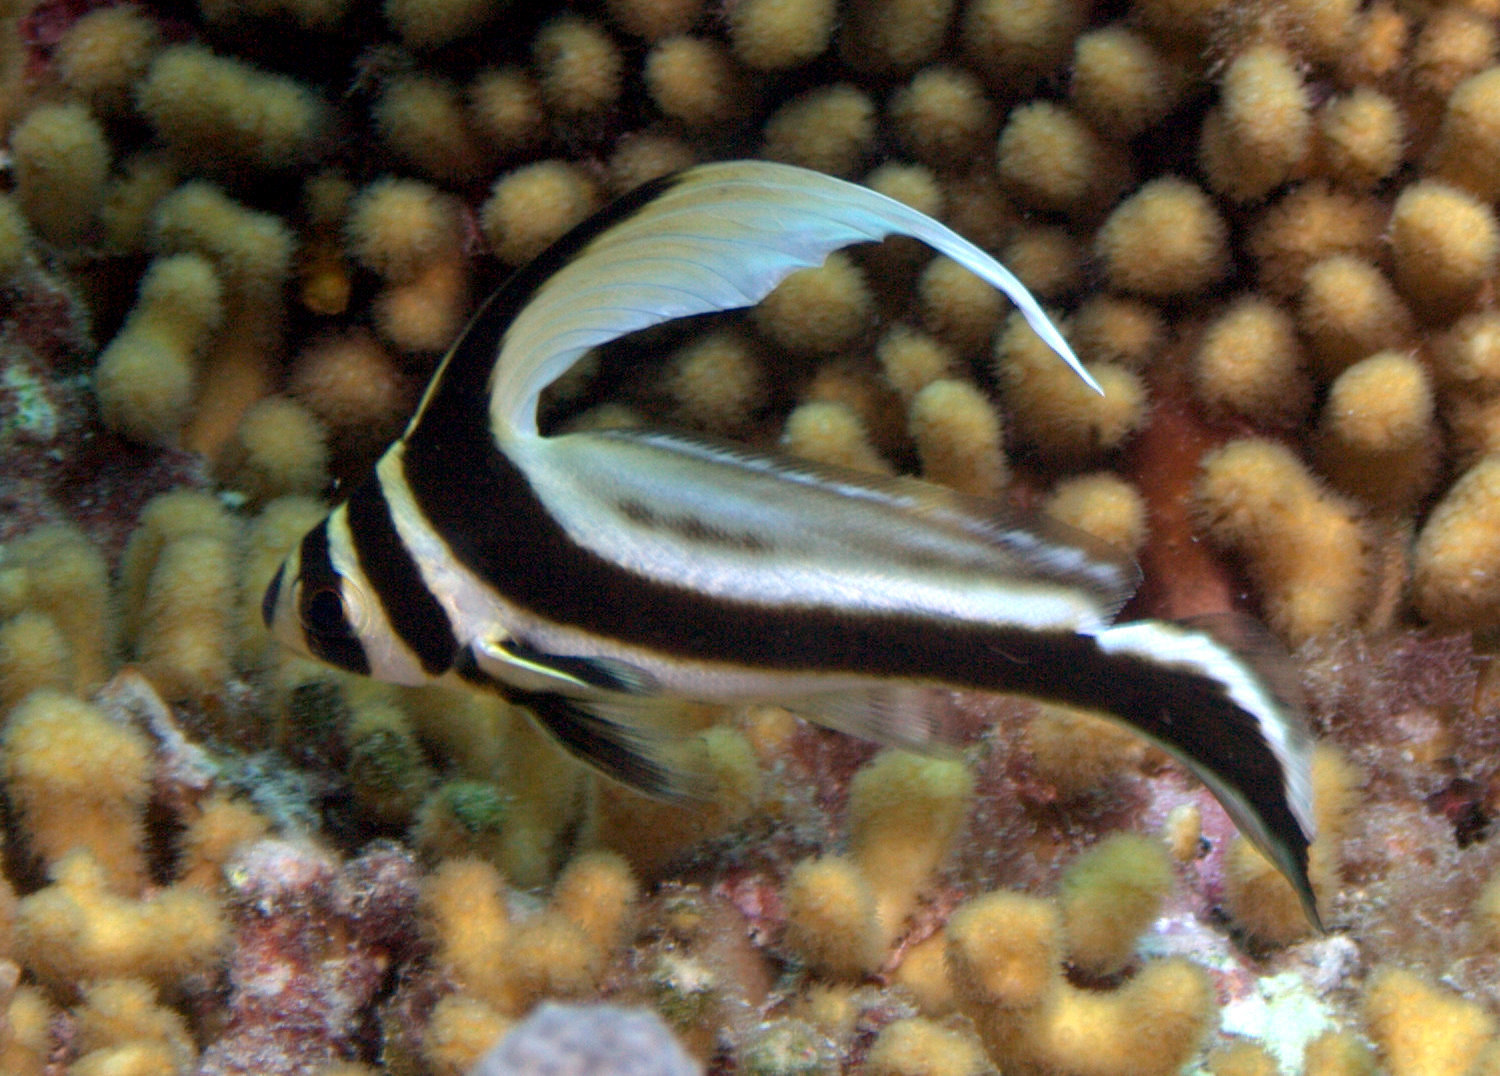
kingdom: Animalia
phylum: Chordata
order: Perciformes
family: Sciaenidae
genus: Equetus
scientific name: Equetus punctatus
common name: Spotted drum
